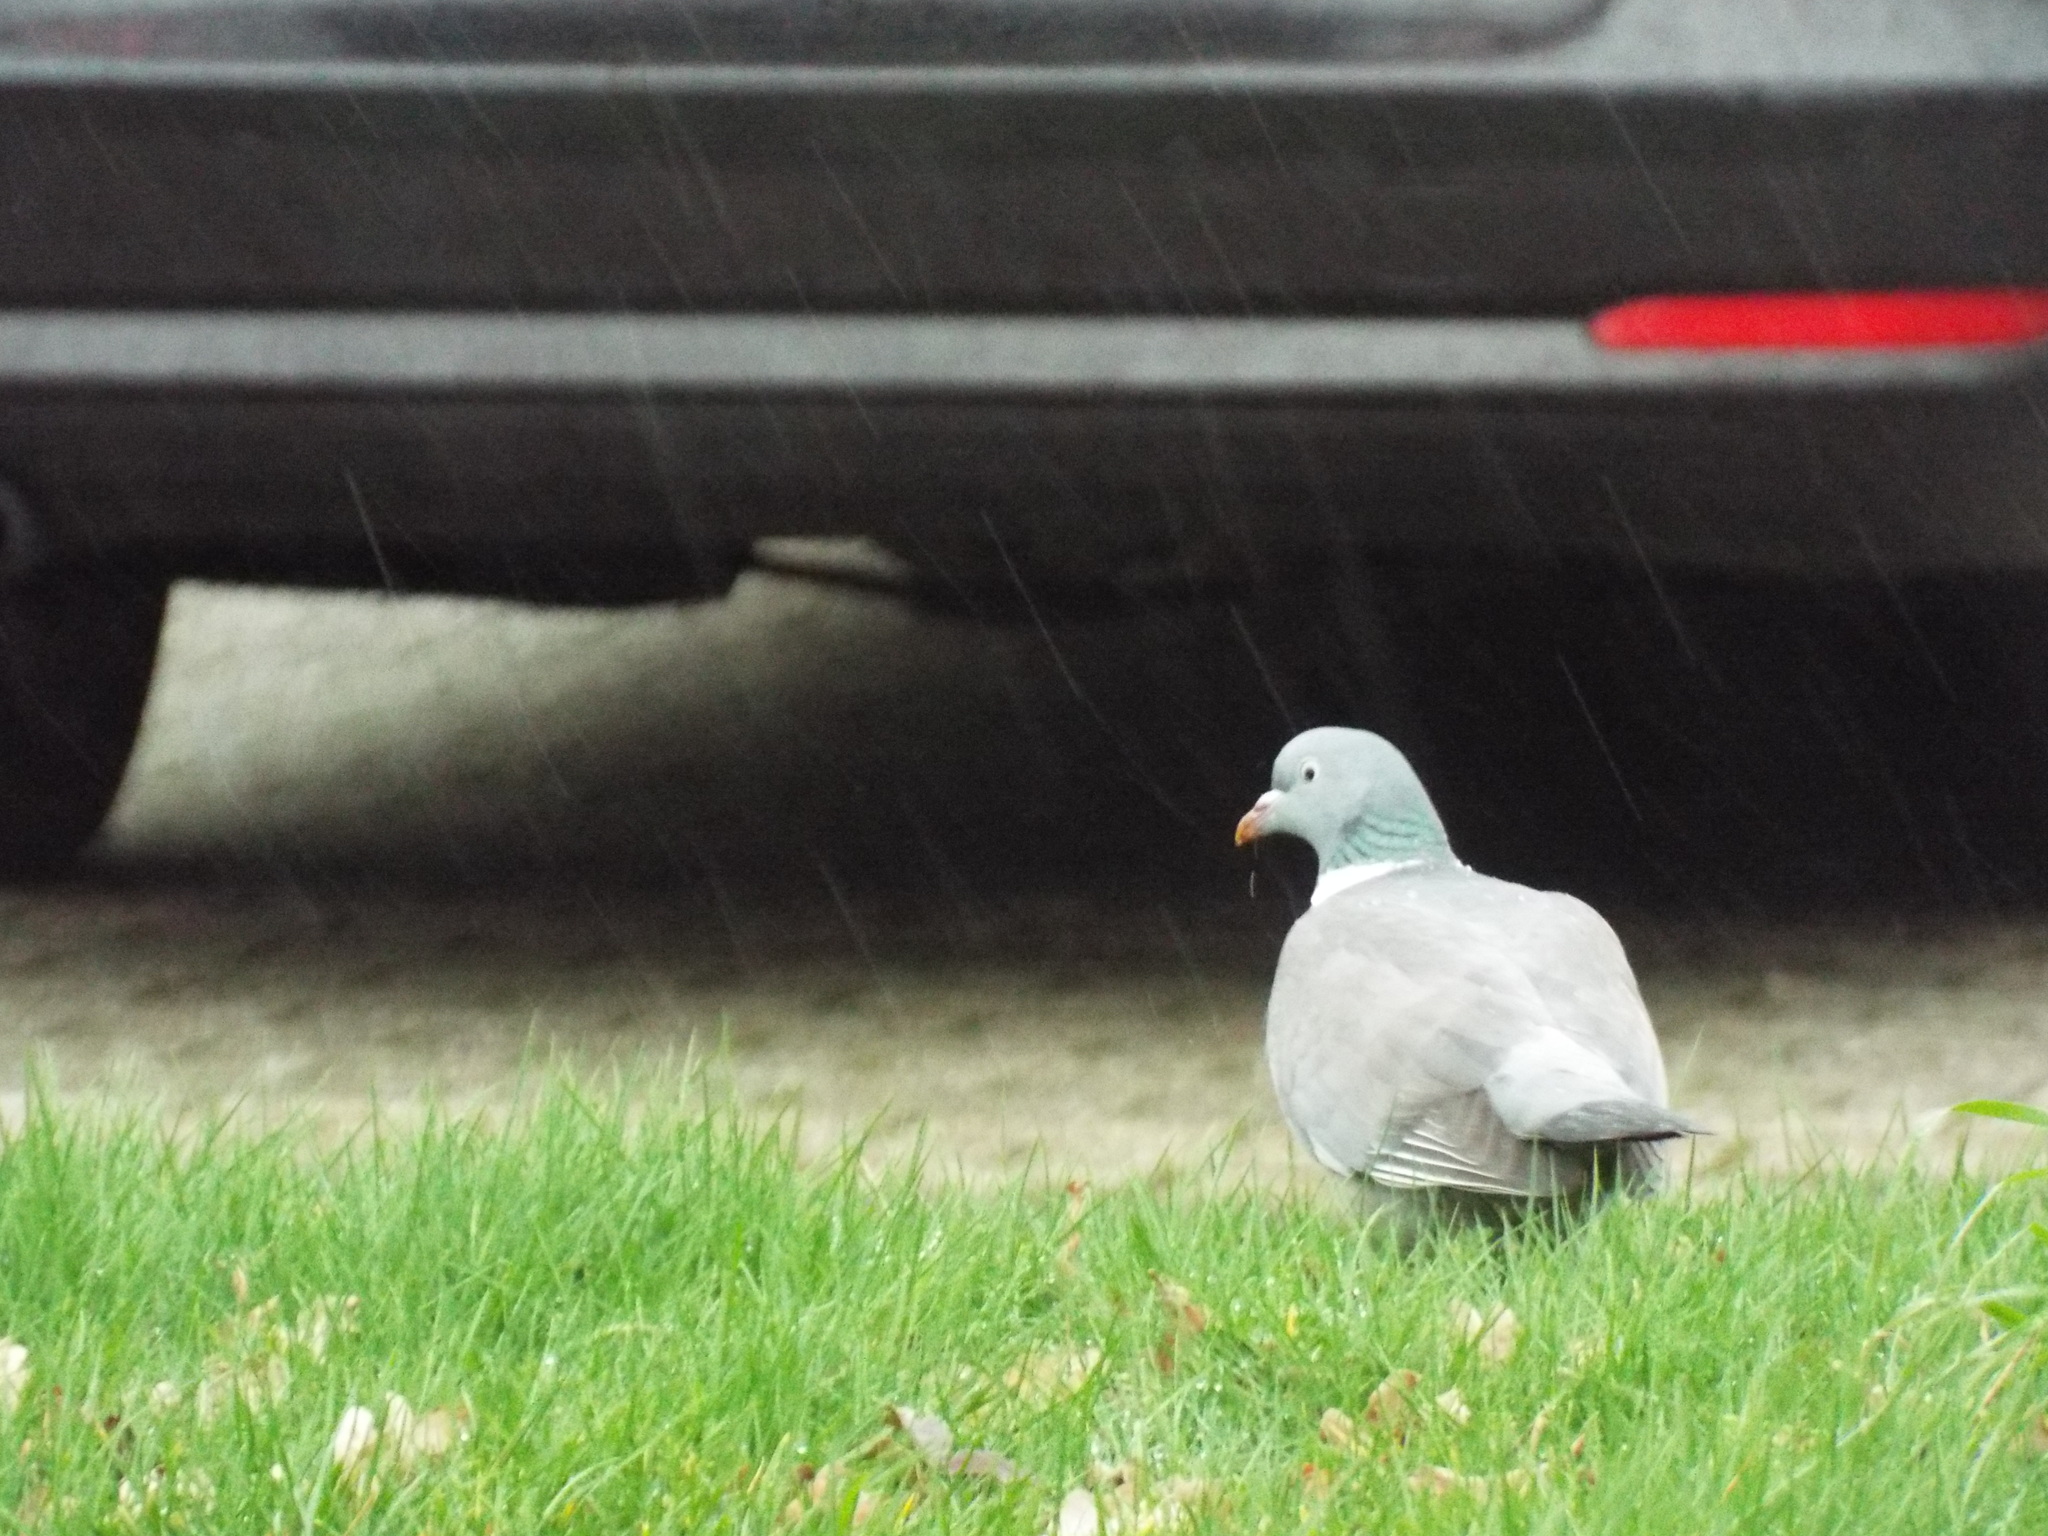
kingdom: Animalia
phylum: Chordata
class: Aves
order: Columbiformes
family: Columbidae
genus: Columba
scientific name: Columba palumbus
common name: Common wood pigeon
